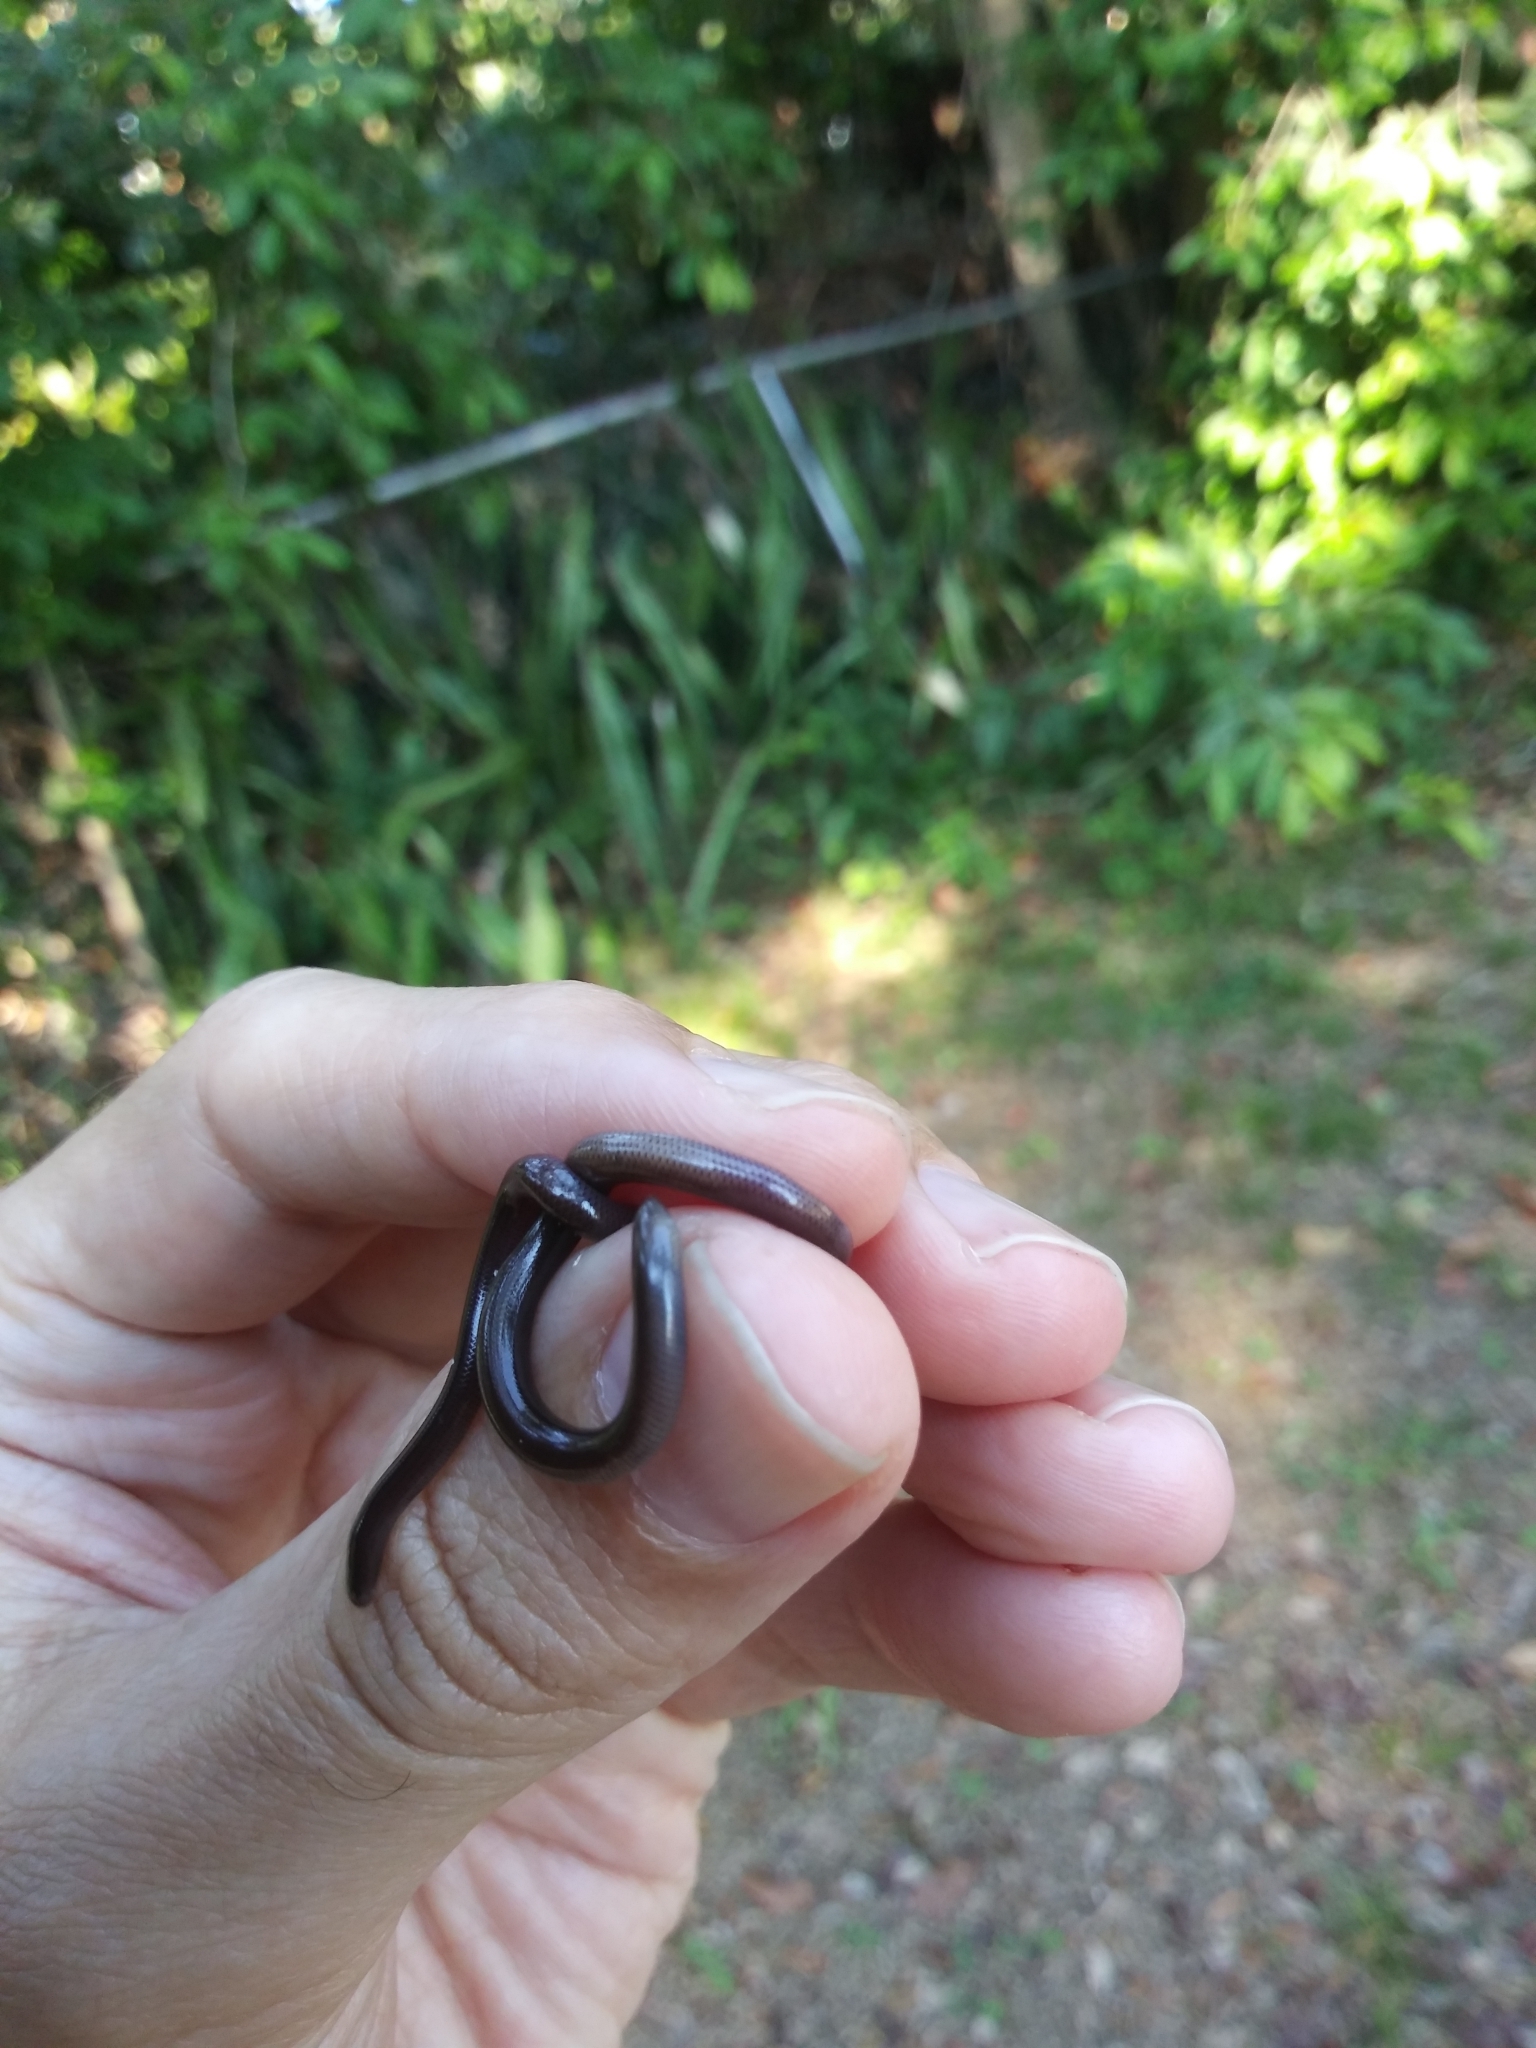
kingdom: Animalia
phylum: Chordata
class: Squamata
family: Typhlopidae
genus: Indotyphlops
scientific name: Indotyphlops braminus
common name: Brahminy blindsnake
